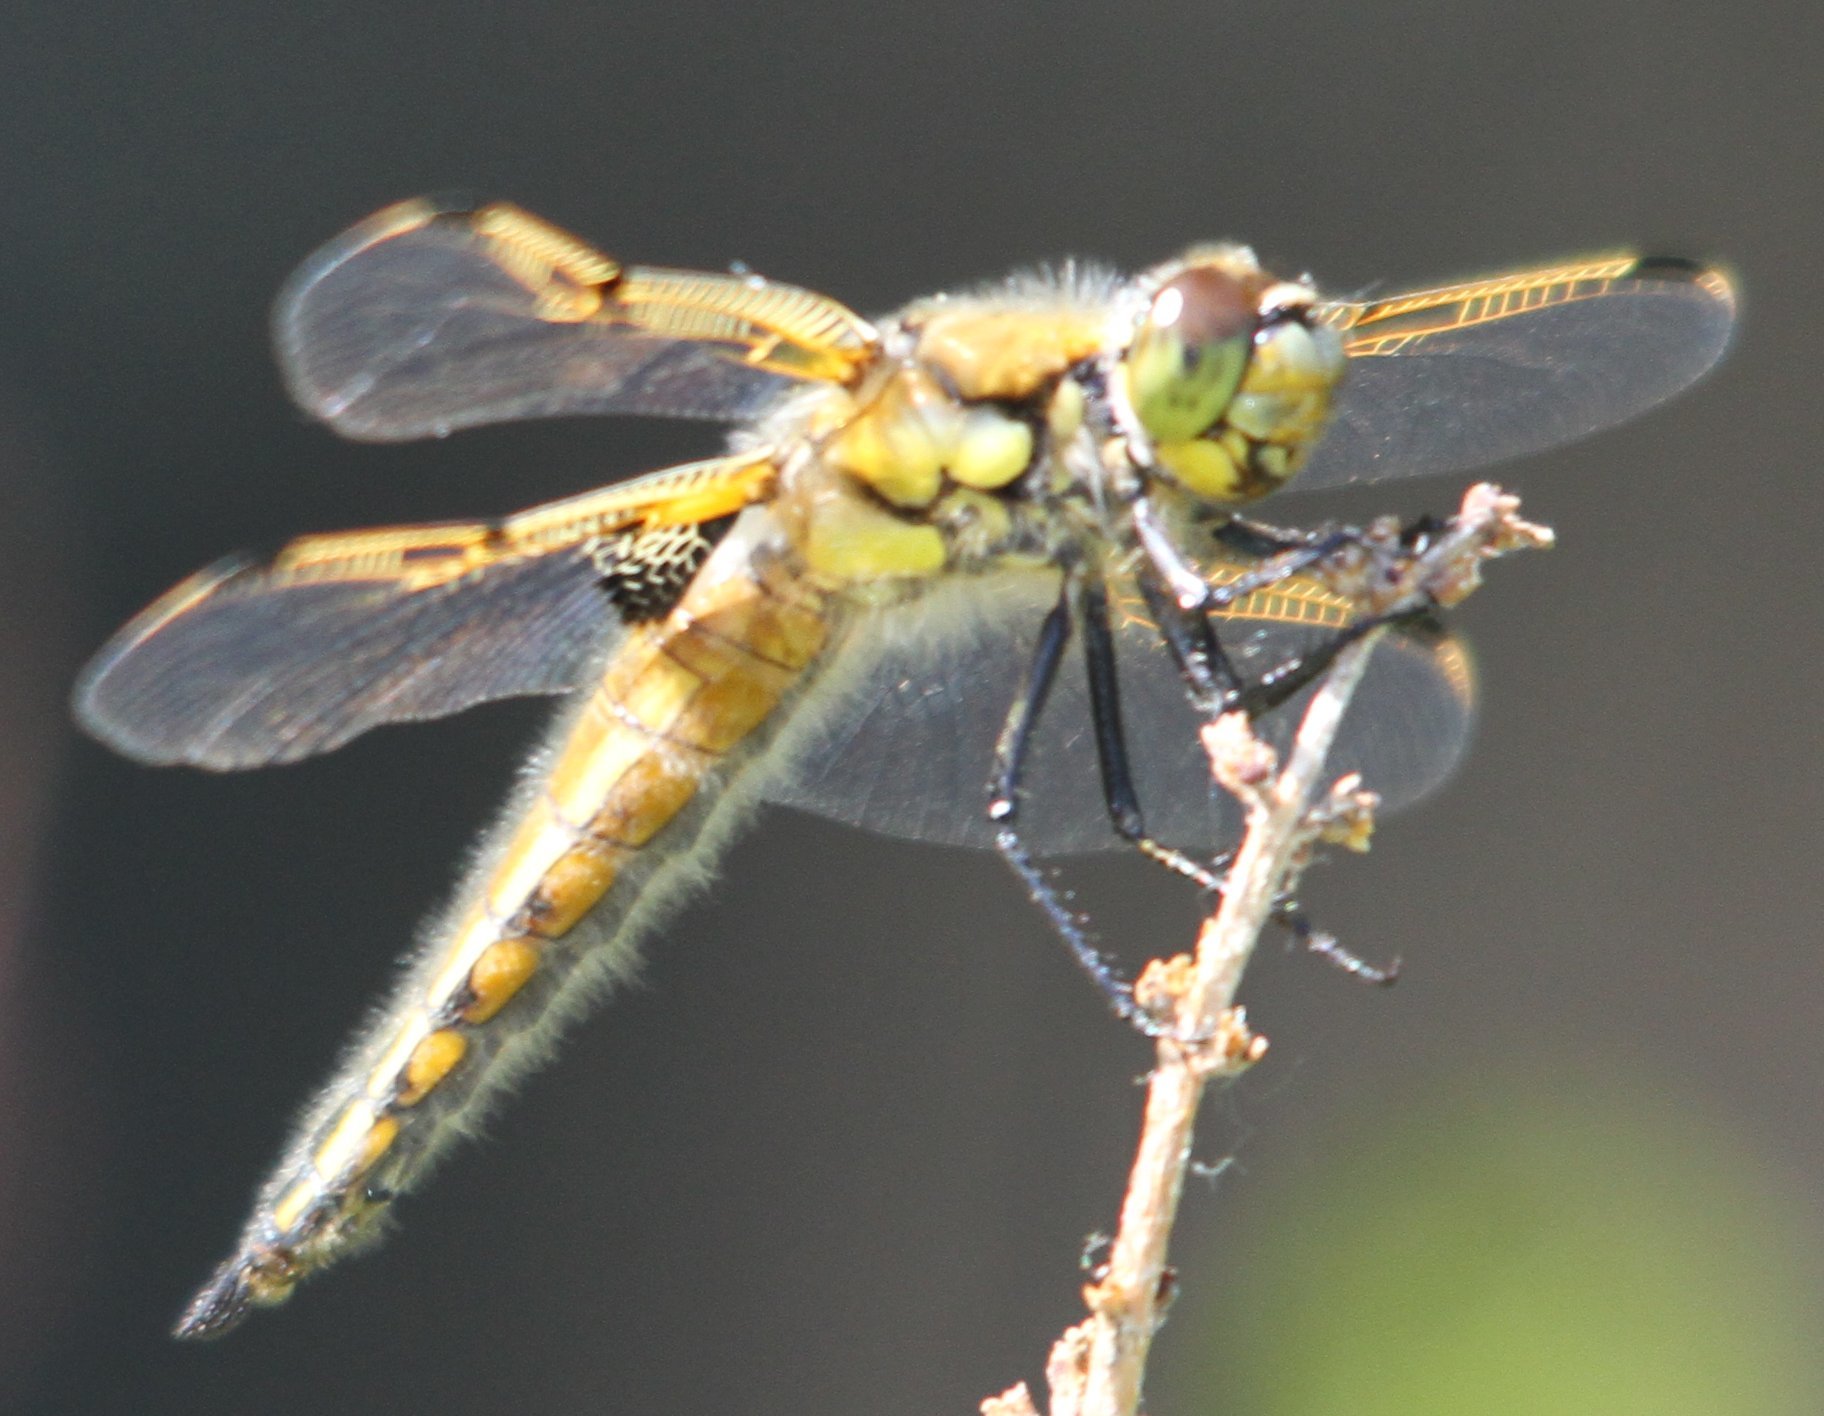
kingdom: Animalia
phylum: Arthropoda
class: Insecta
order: Odonata
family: Libellulidae
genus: Libellula
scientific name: Libellula quadrimaculata
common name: Four-spotted chaser
